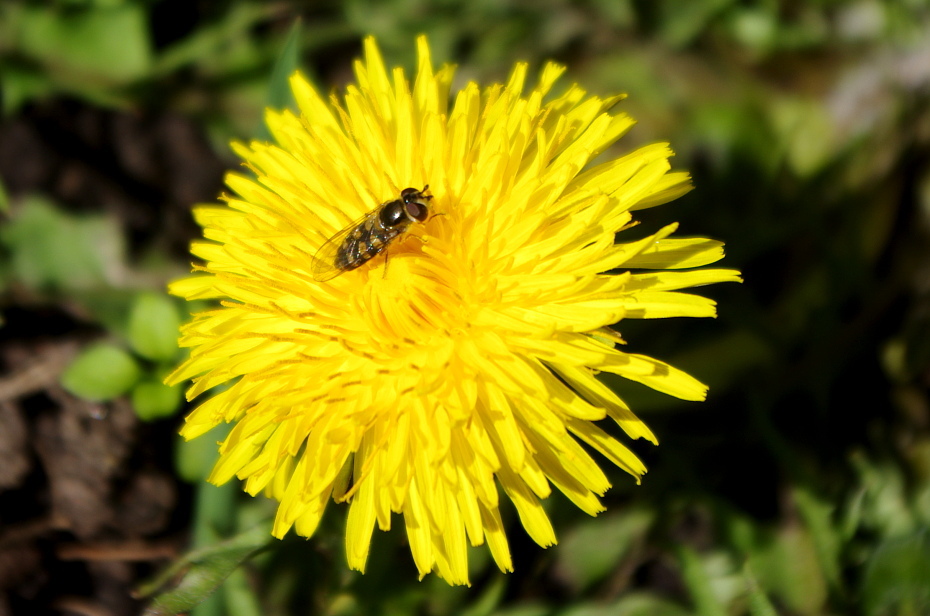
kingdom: Plantae
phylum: Tracheophyta
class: Magnoliopsida
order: Asterales
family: Asteraceae
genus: Taraxacum
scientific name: Taraxacum officinale
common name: Common dandelion
